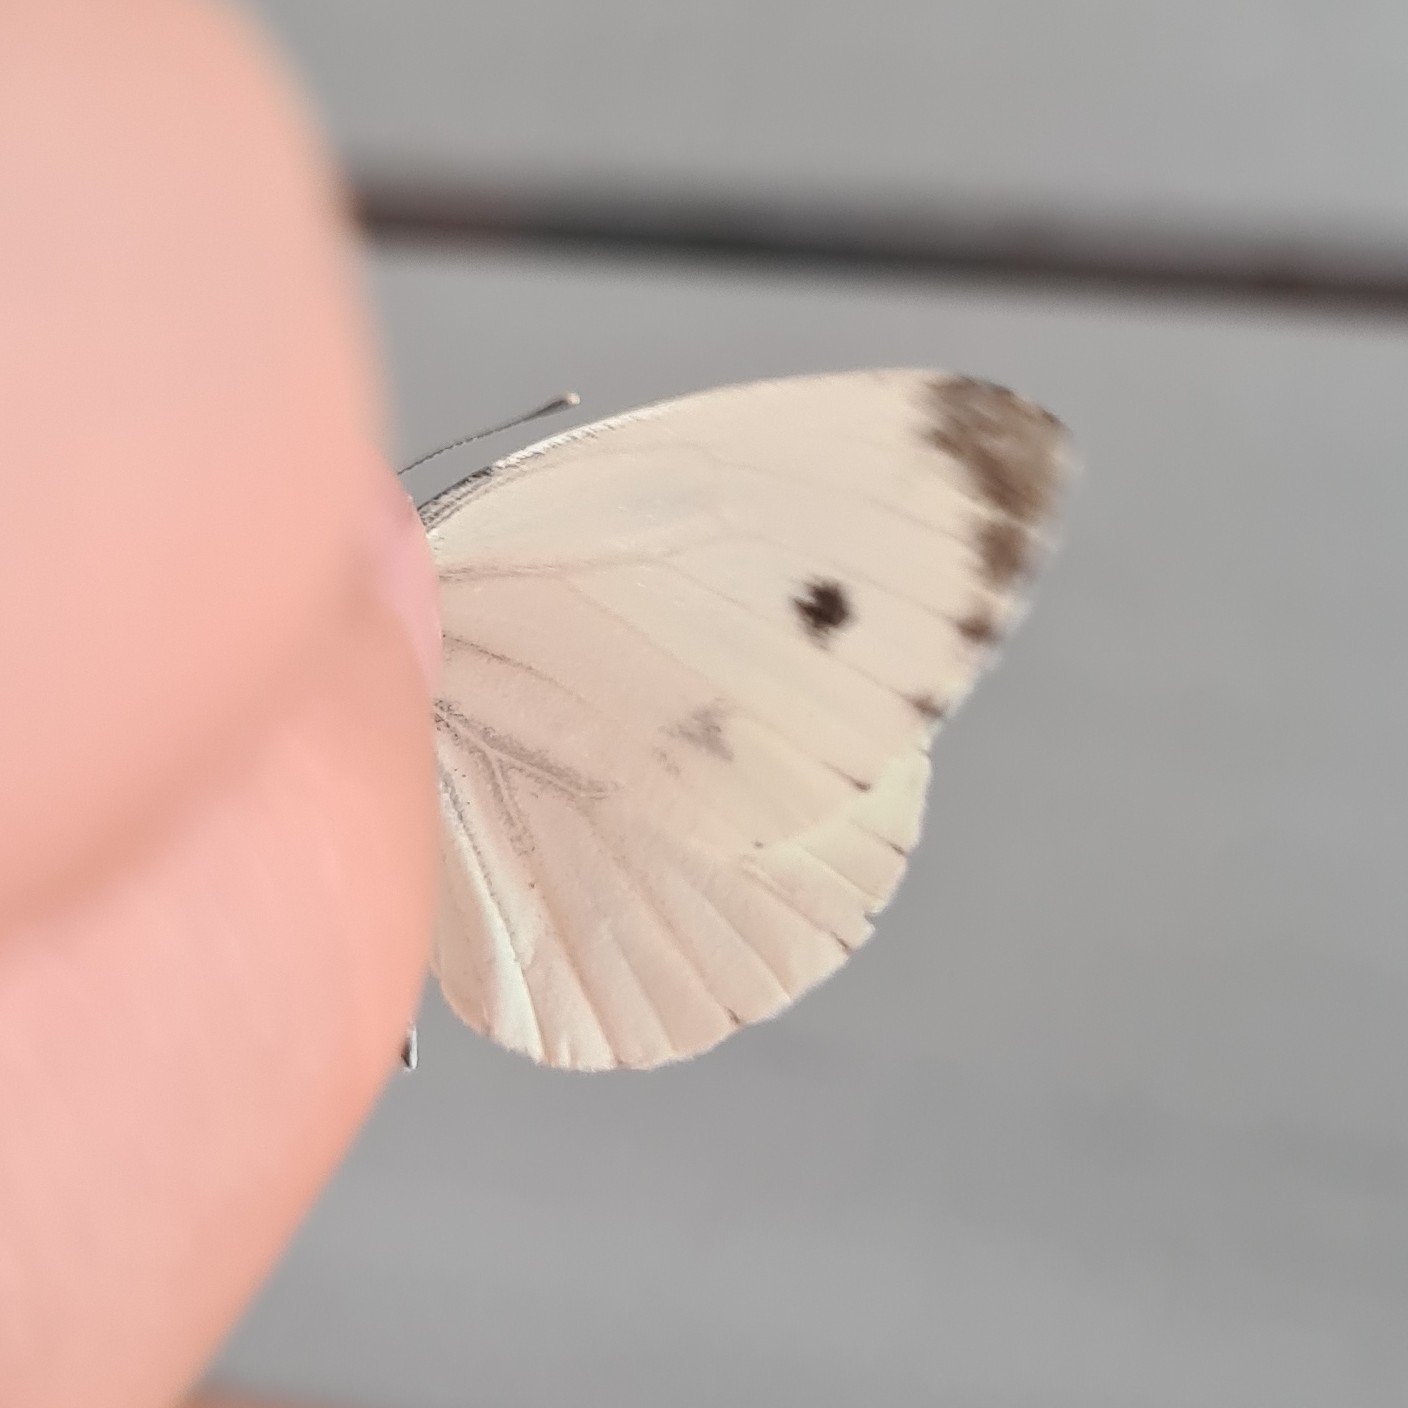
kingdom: Animalia
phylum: Arthropoda
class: Insecta
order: Lepidoptera
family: Pieridae
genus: Pieris
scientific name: Pieris napi
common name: Green-veined white
